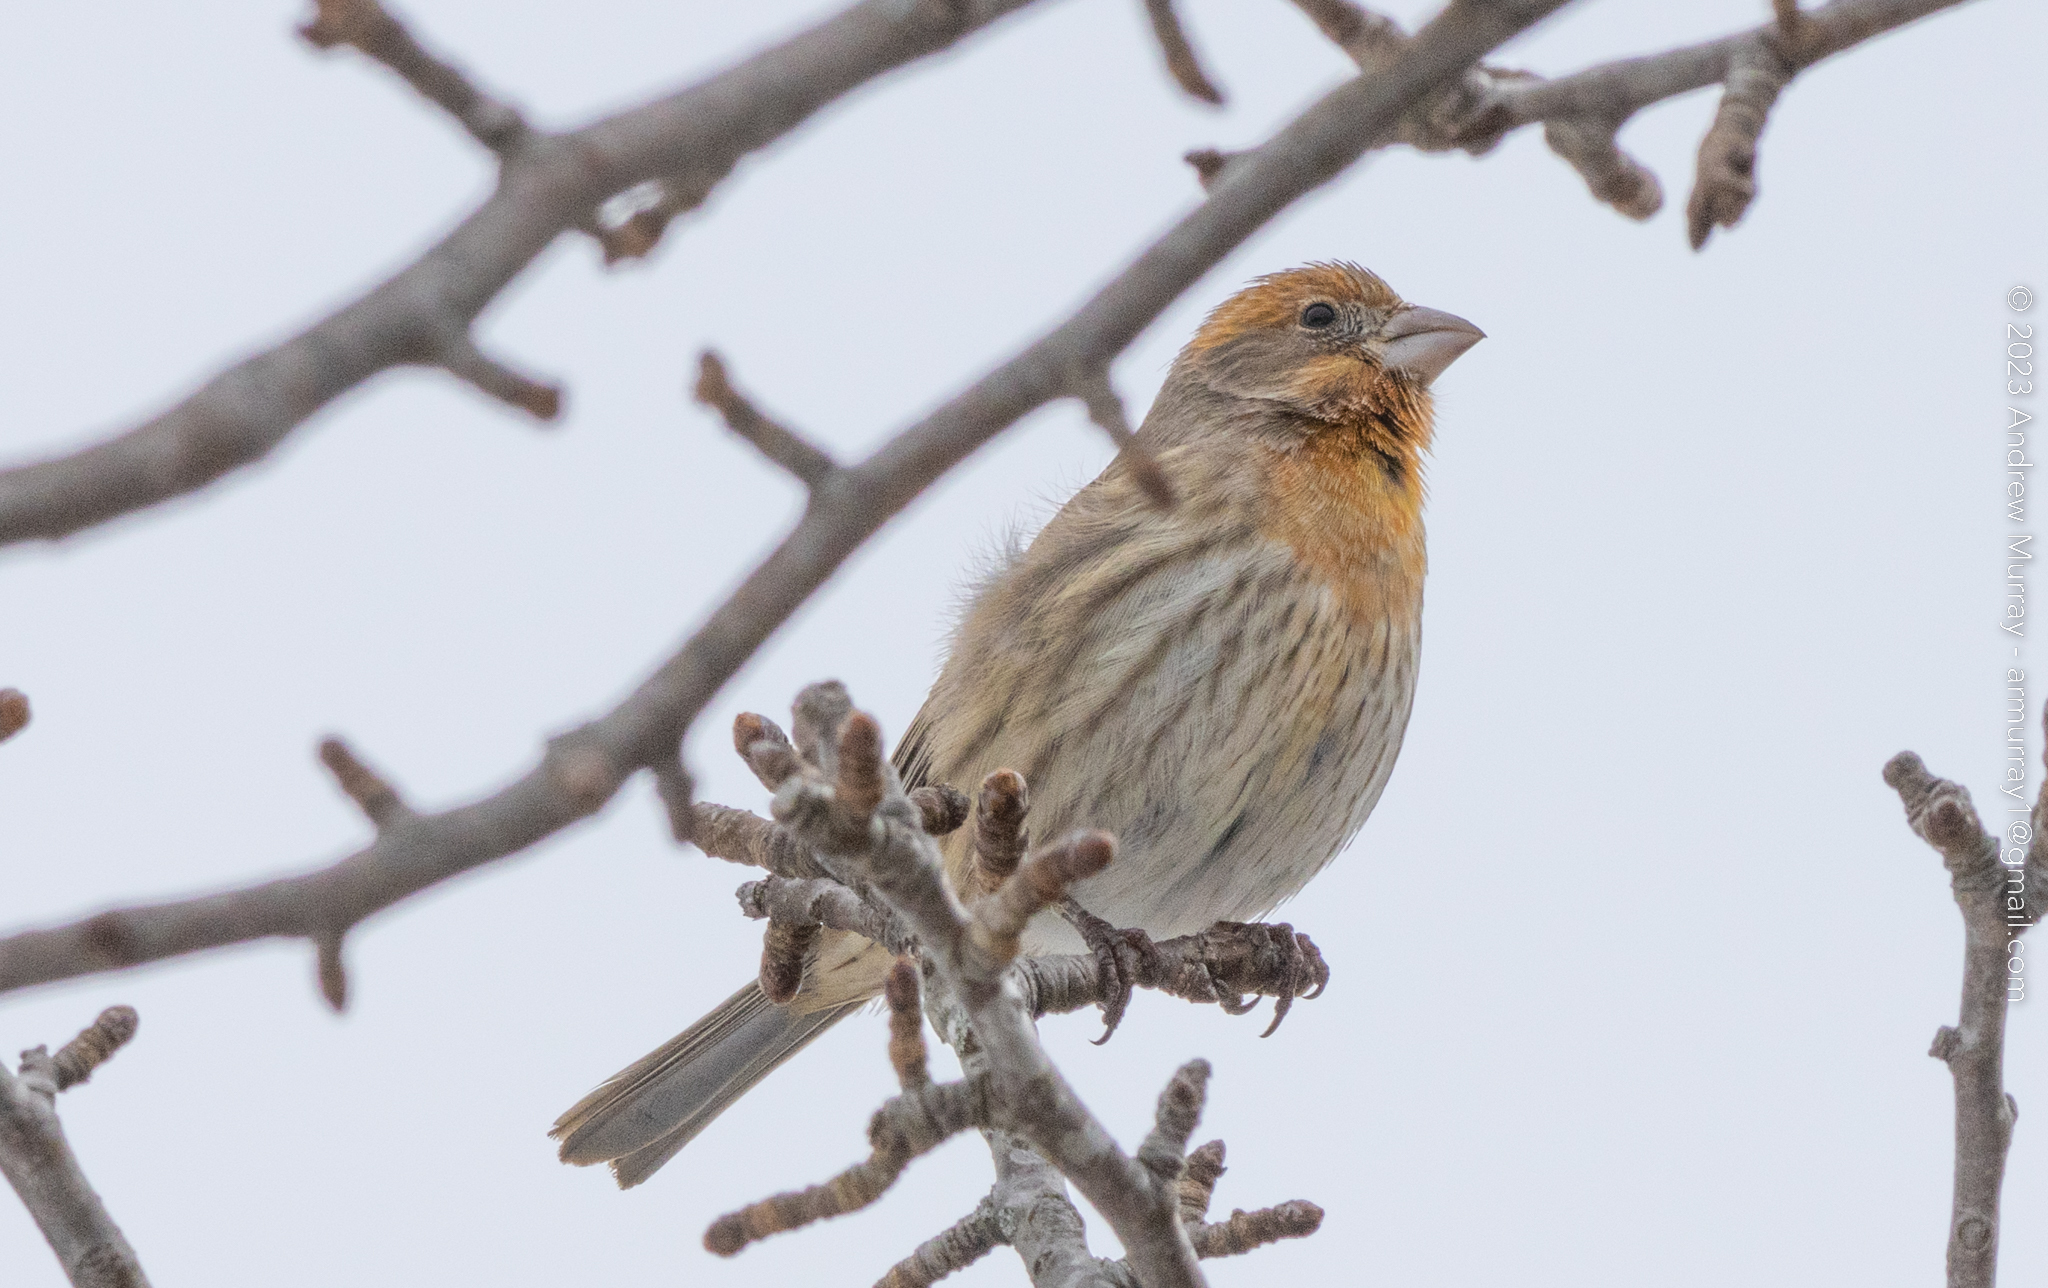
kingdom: Animalia
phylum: Chordata
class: Aves
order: Passeriformes
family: Fringillidae
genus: Haemorhous
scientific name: Haemorhous mexicanus
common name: House finch
